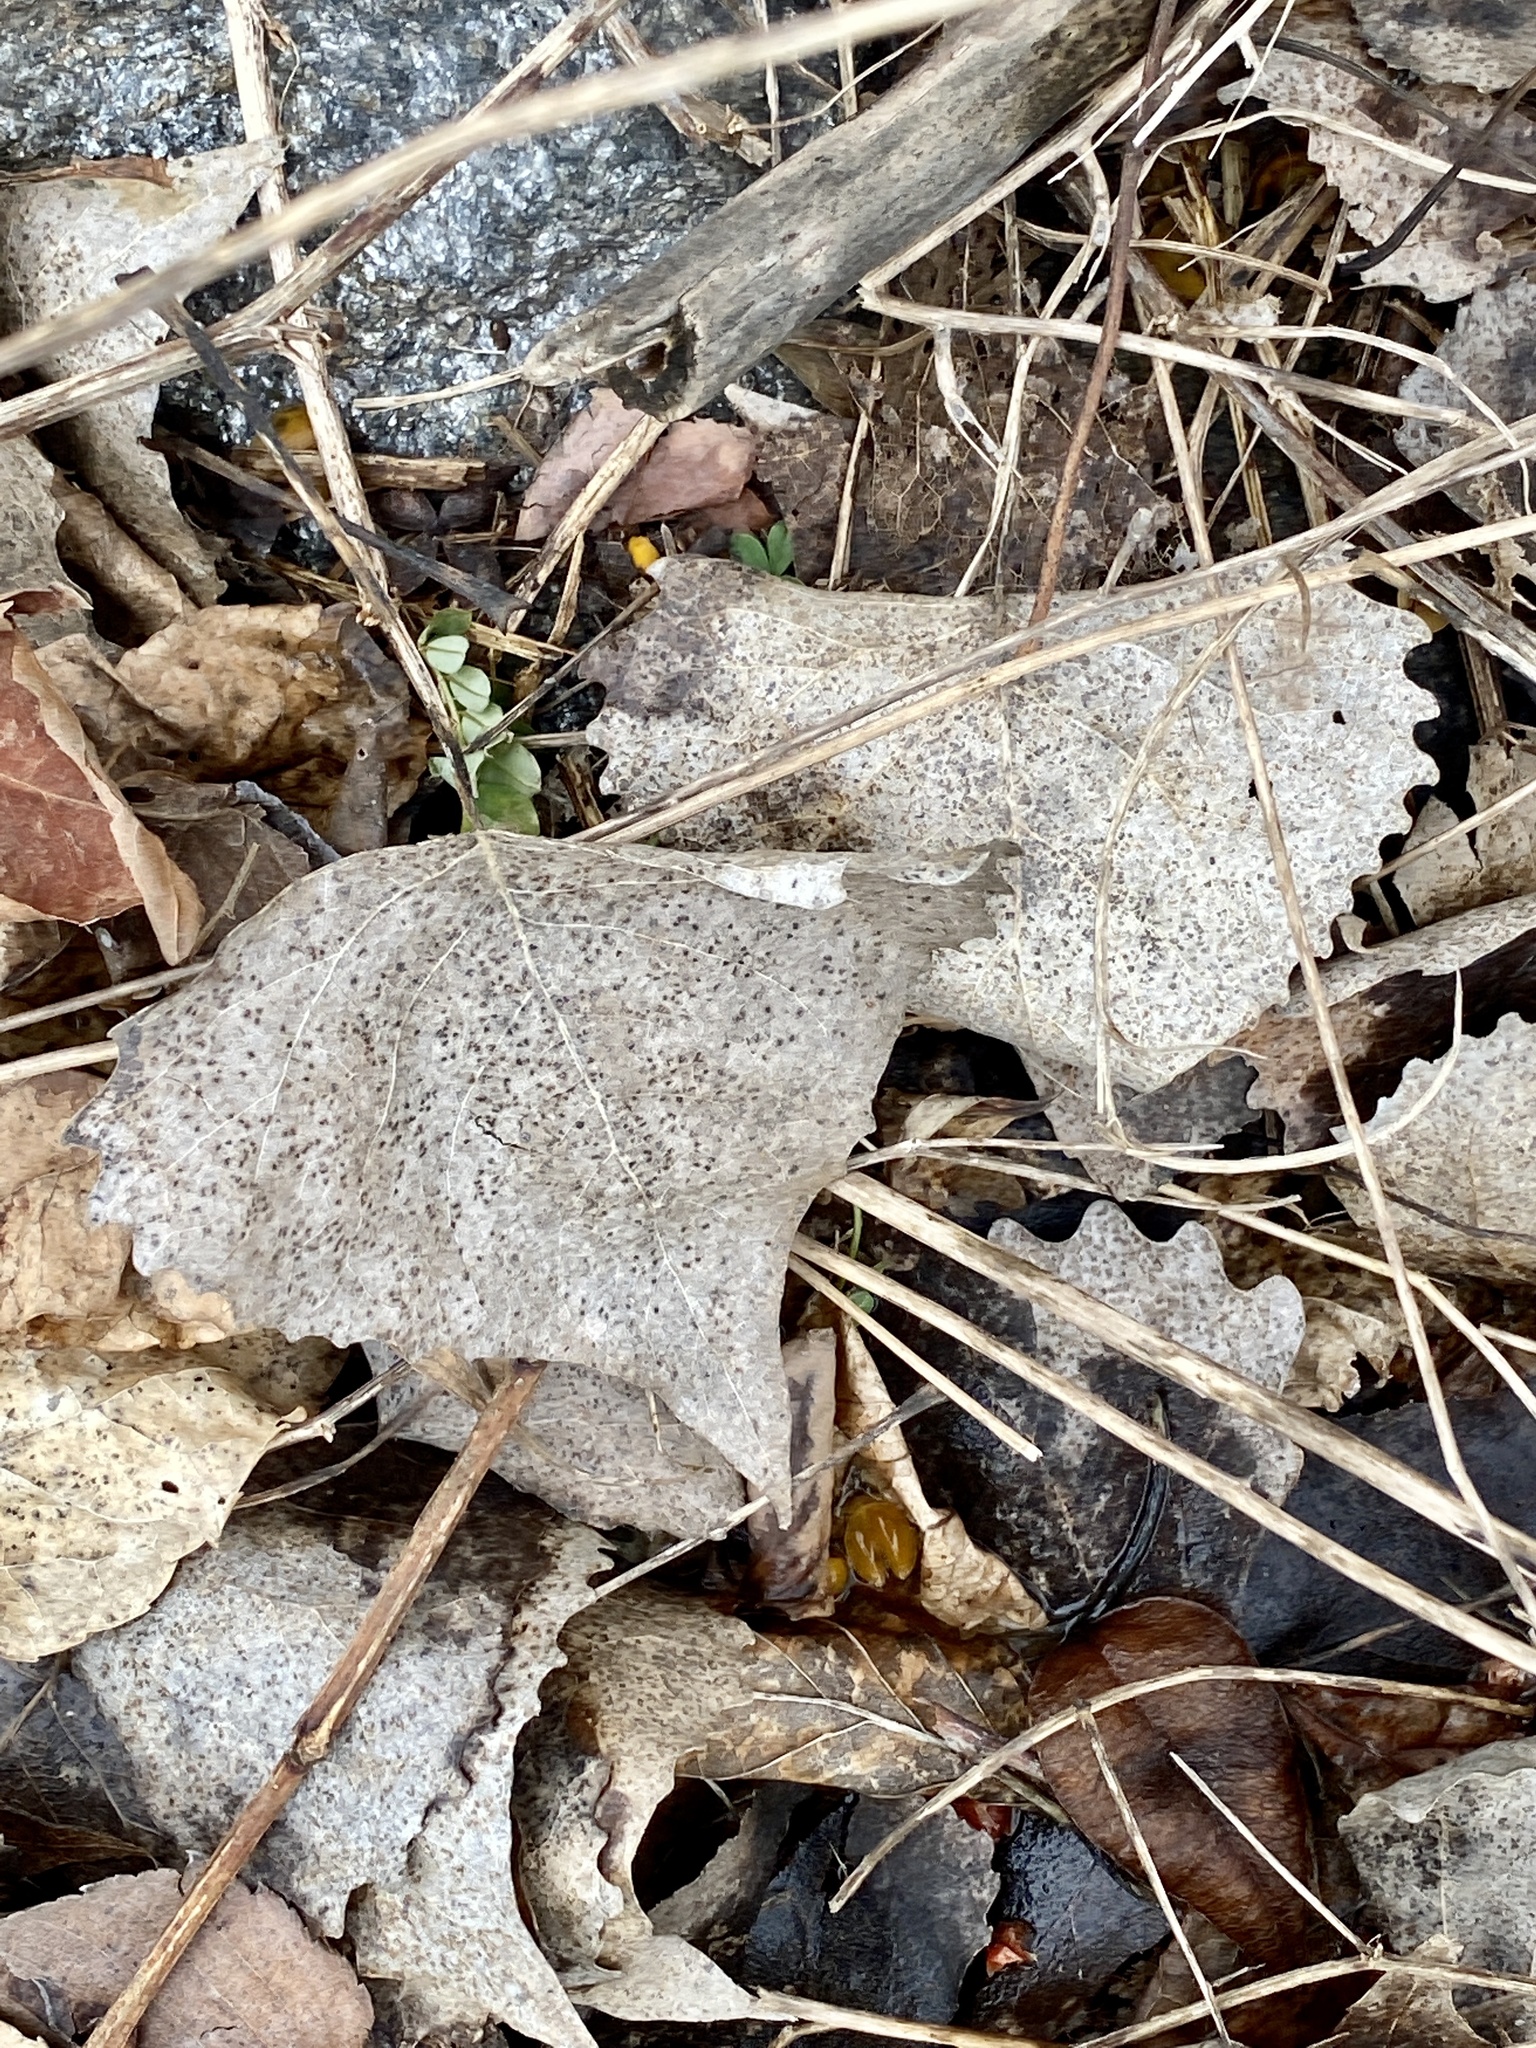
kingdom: Plantae
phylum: Tracheophyta
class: Magnoliopsida
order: Malpighiales
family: Salicaceae
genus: Populus
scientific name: Populus deltoides
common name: Eastern cottonwood
